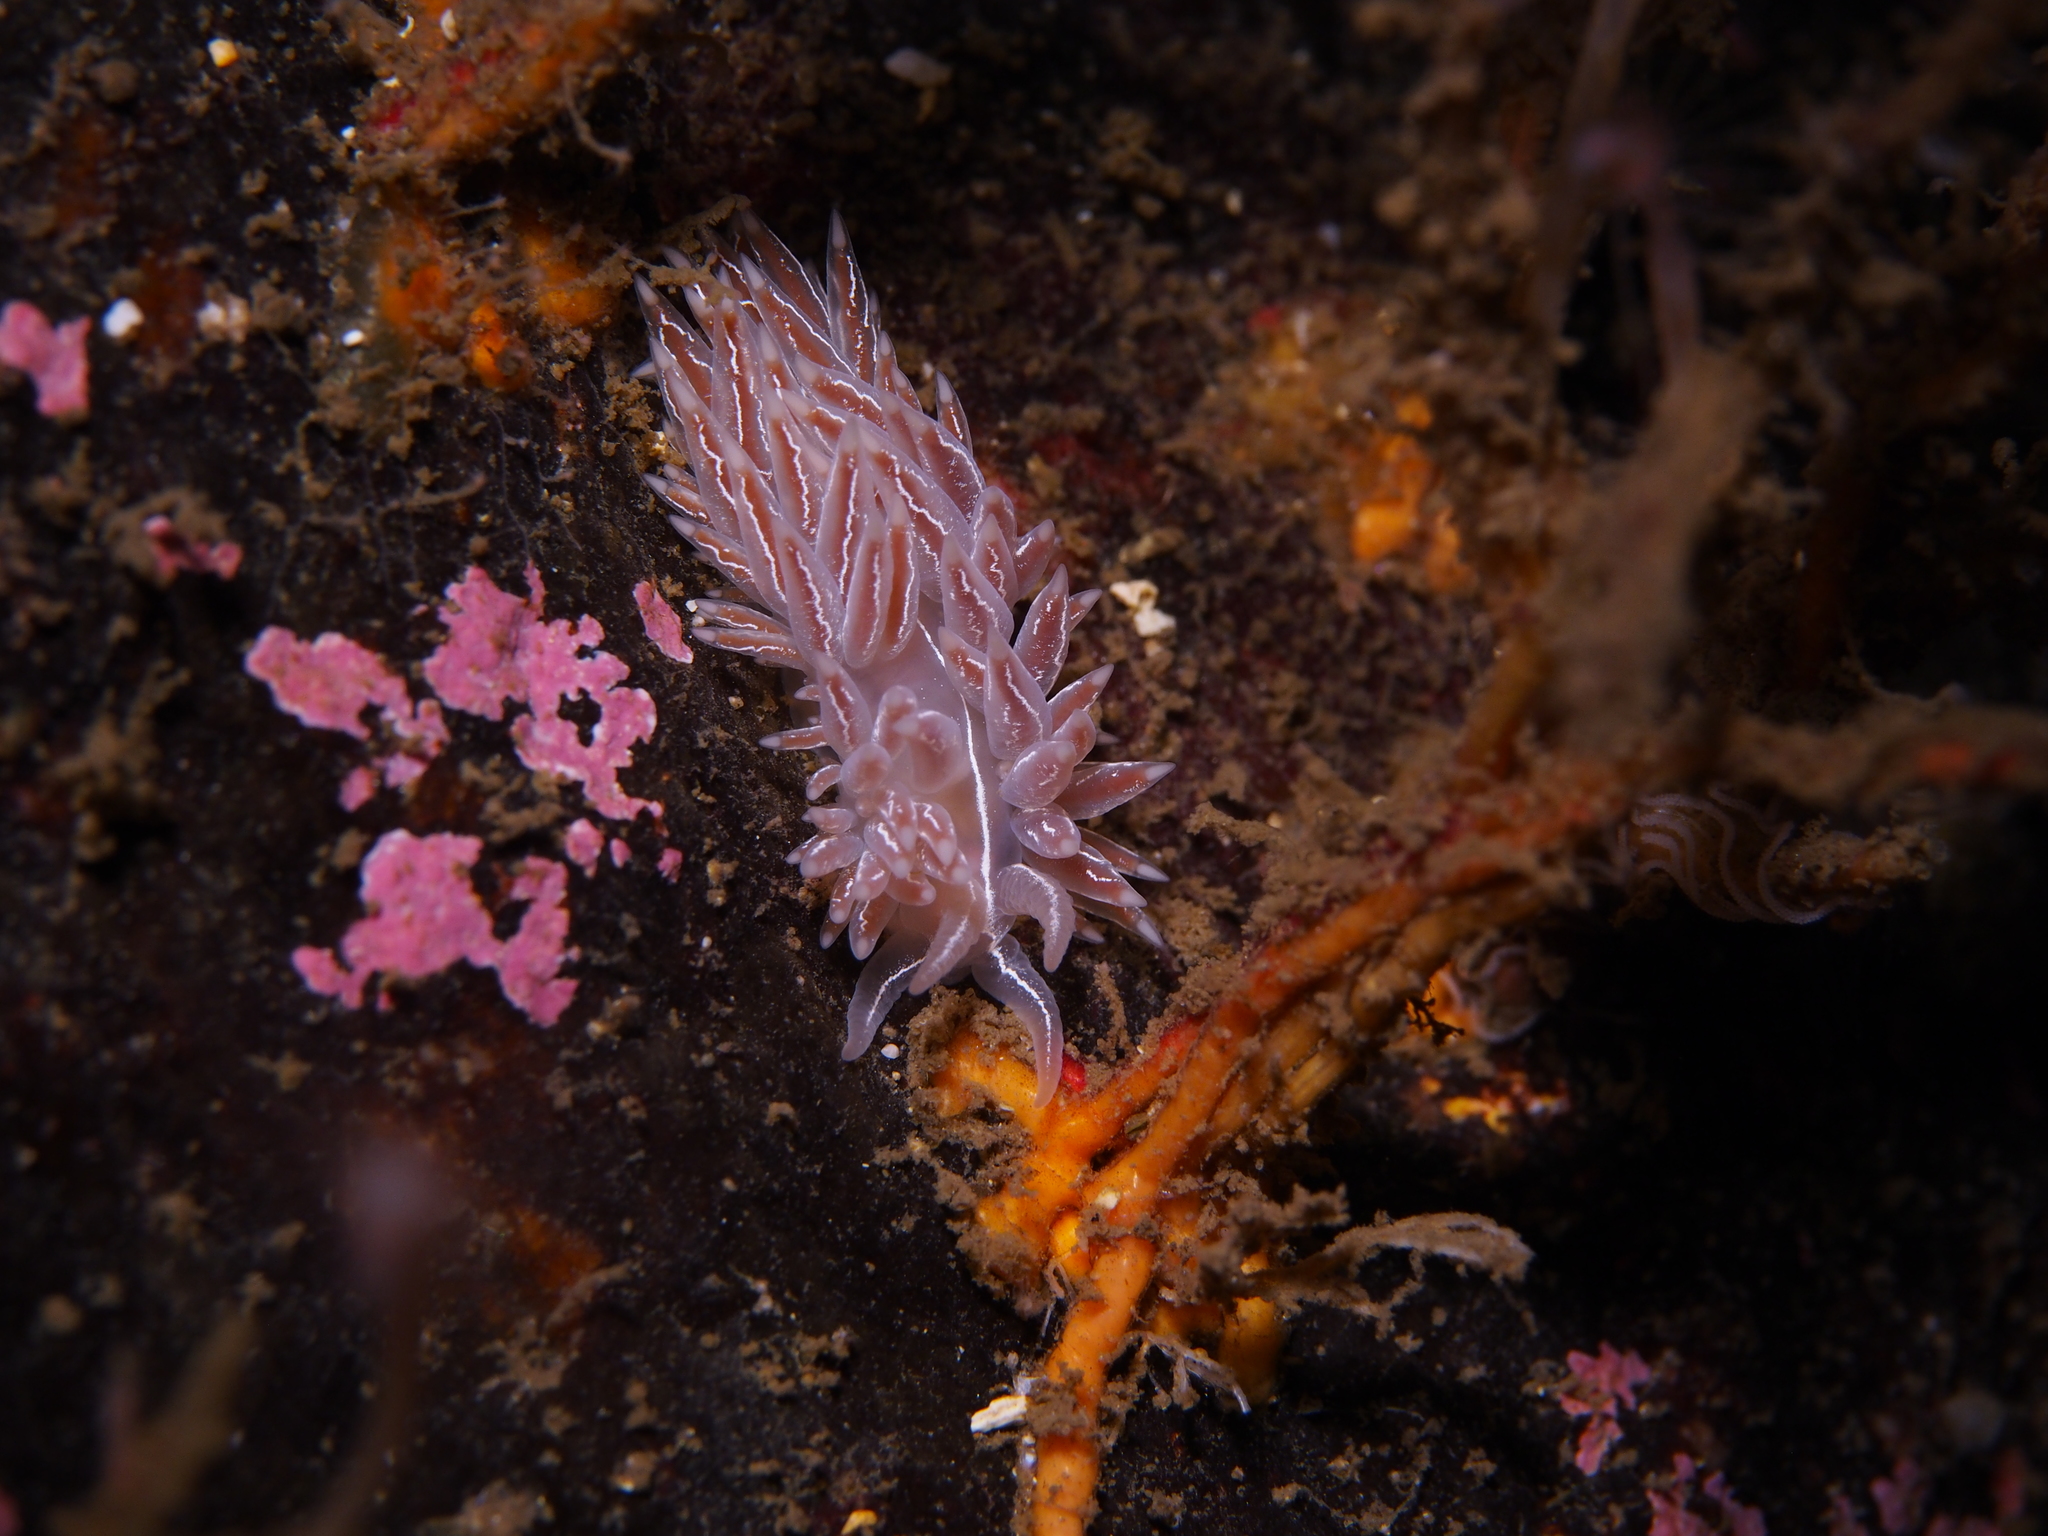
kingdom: Animalia
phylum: Mollusca
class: Gastropoda
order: Nudibranchia
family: Coryphellidae
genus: Coryphella
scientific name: Coryphella chriskaugei
